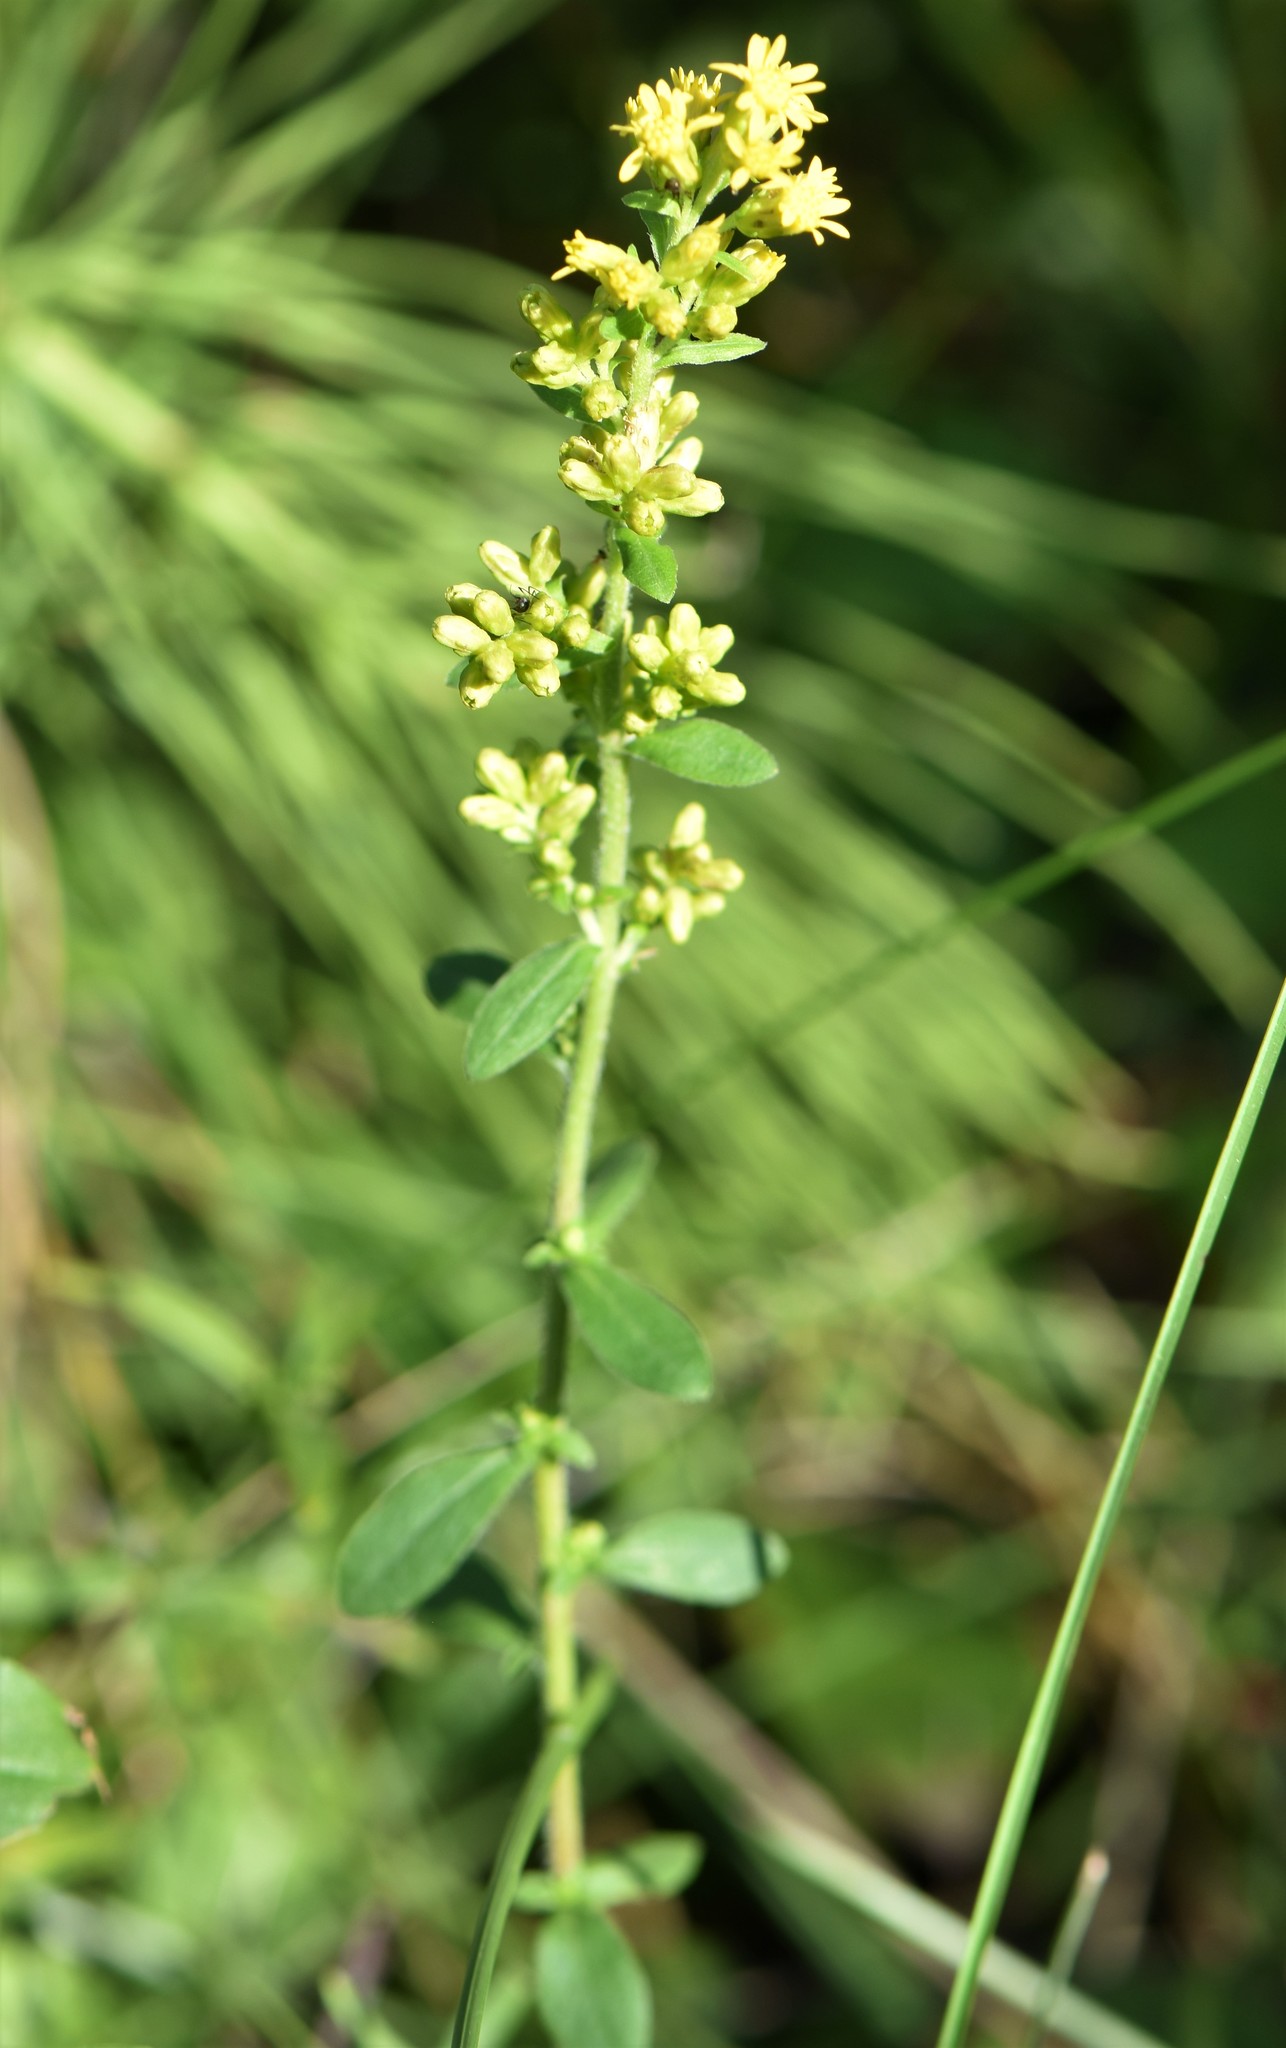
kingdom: Plantae
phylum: Tracheophyta
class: Magnoliopsida
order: Asterales
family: Asteraceae
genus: Solidago
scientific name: Solidago hispida
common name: Hairy goldenrod
